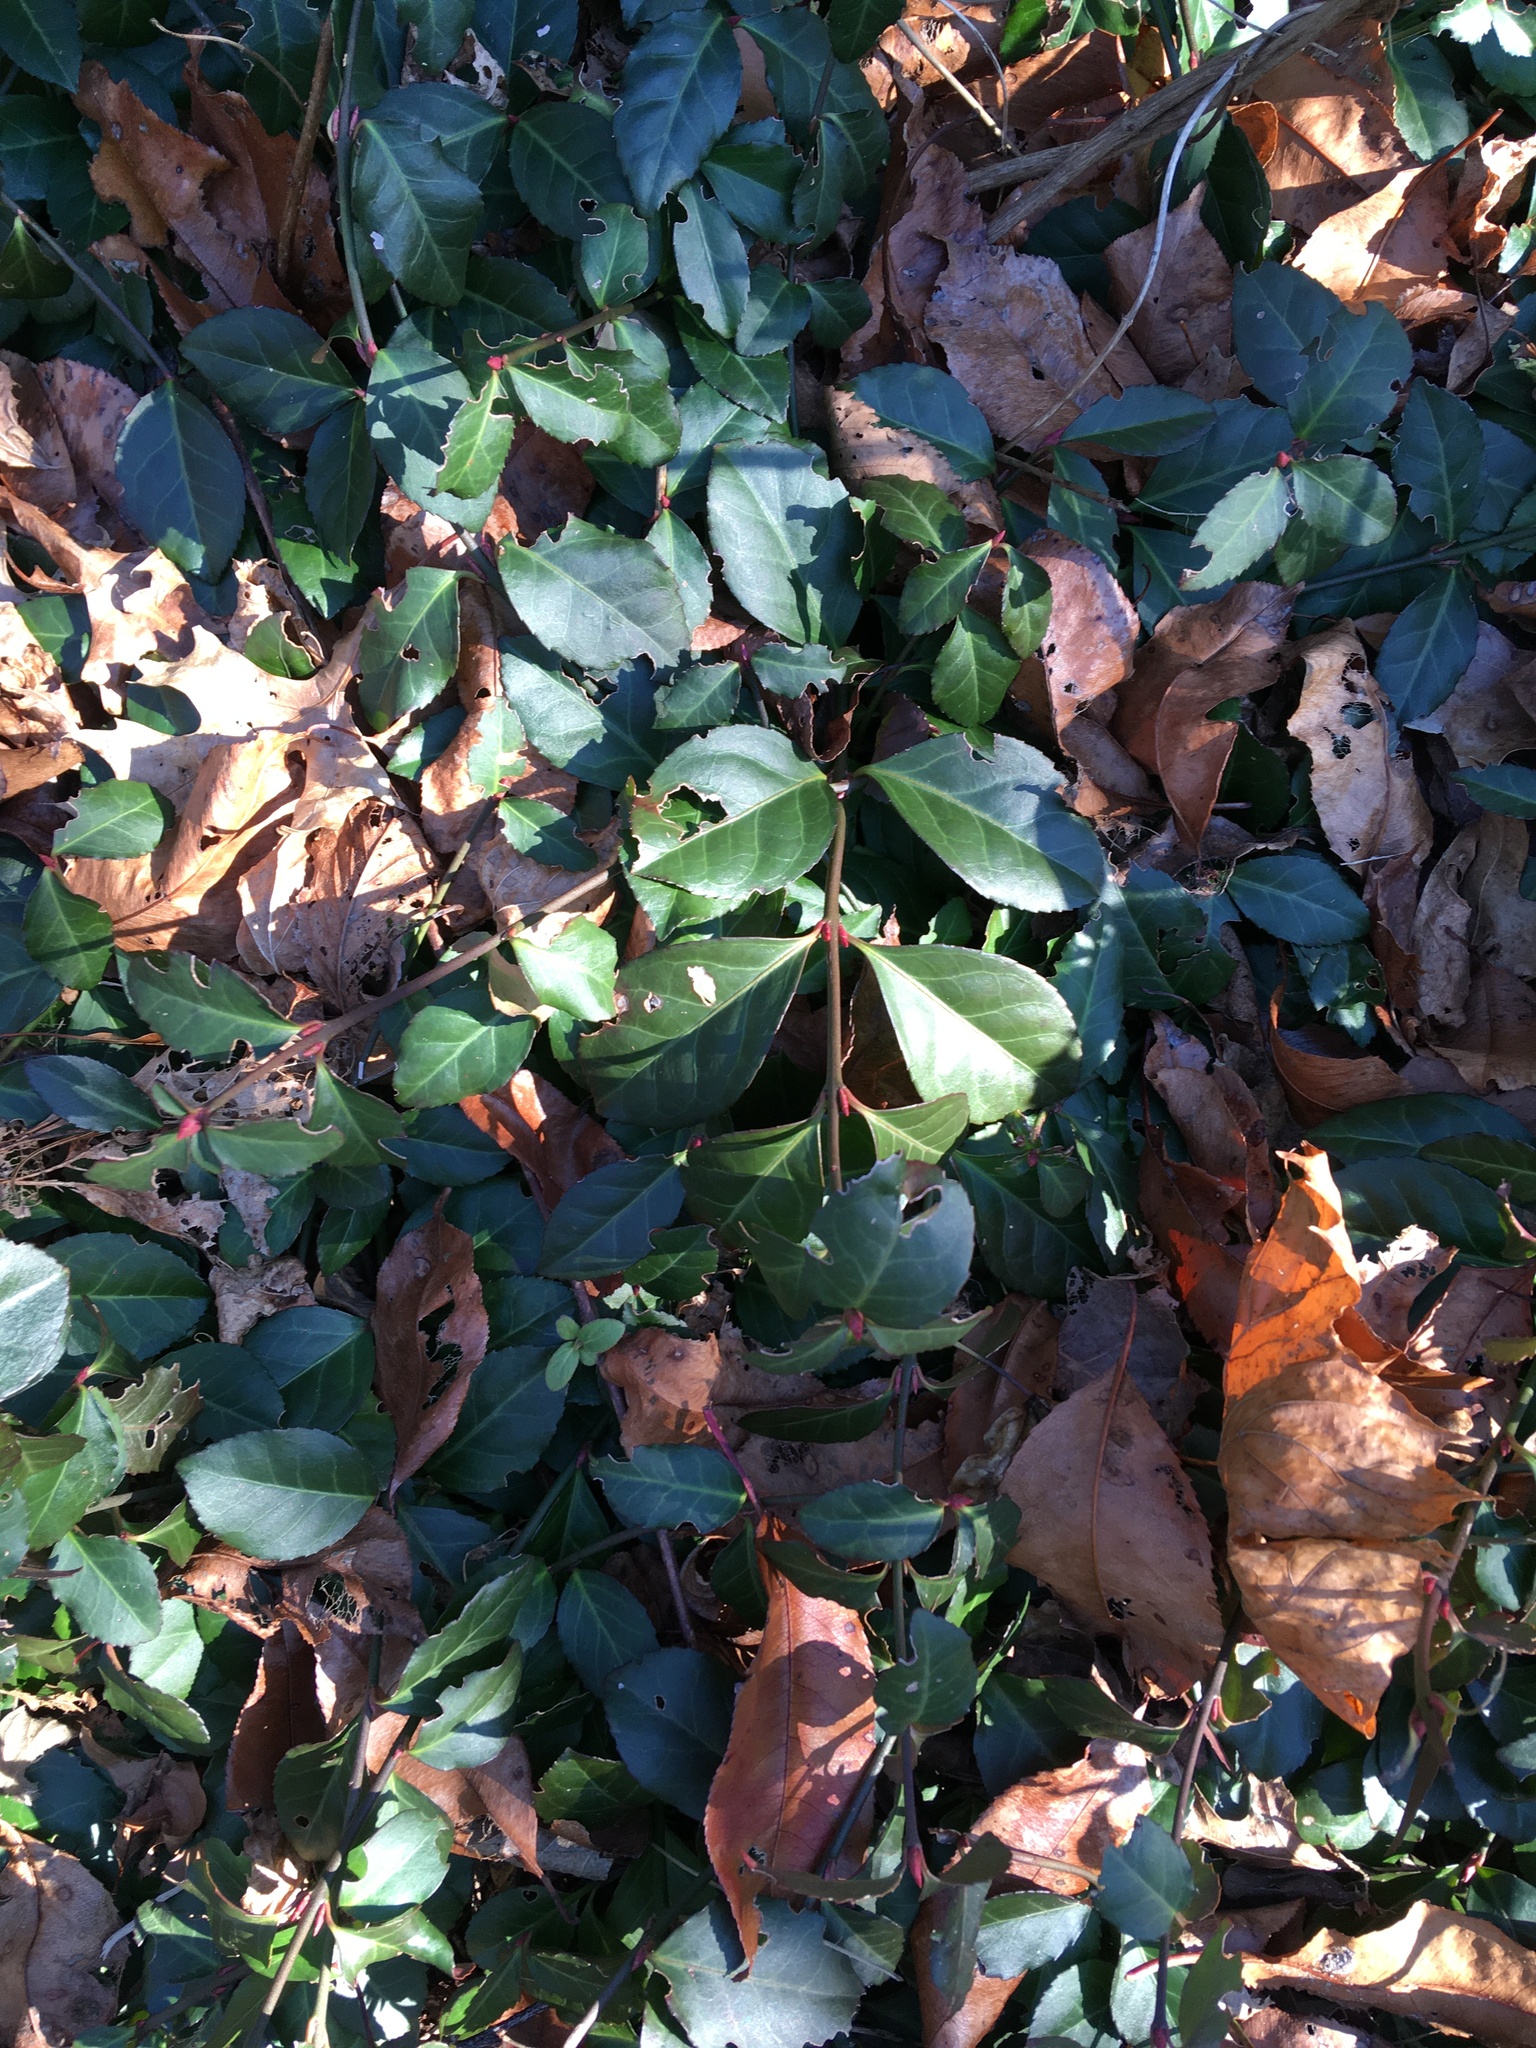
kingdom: Plantae
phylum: Tracheophyta
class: Magnoliopsida
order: Celastrales
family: Celastraceae
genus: Euonymus
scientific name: Euonymus fortunei
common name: Climbing euonymus
